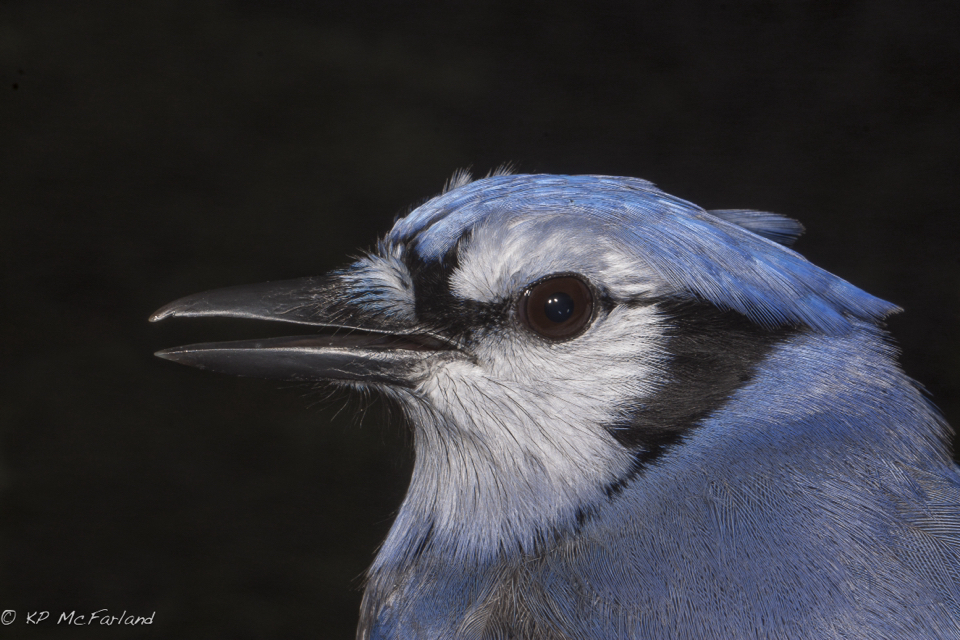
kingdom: Animalia
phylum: Chordata
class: Aves
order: Passeriformes
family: Corvidae
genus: Cyanocitta
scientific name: Cyanocitta cristata
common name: Blue jay
